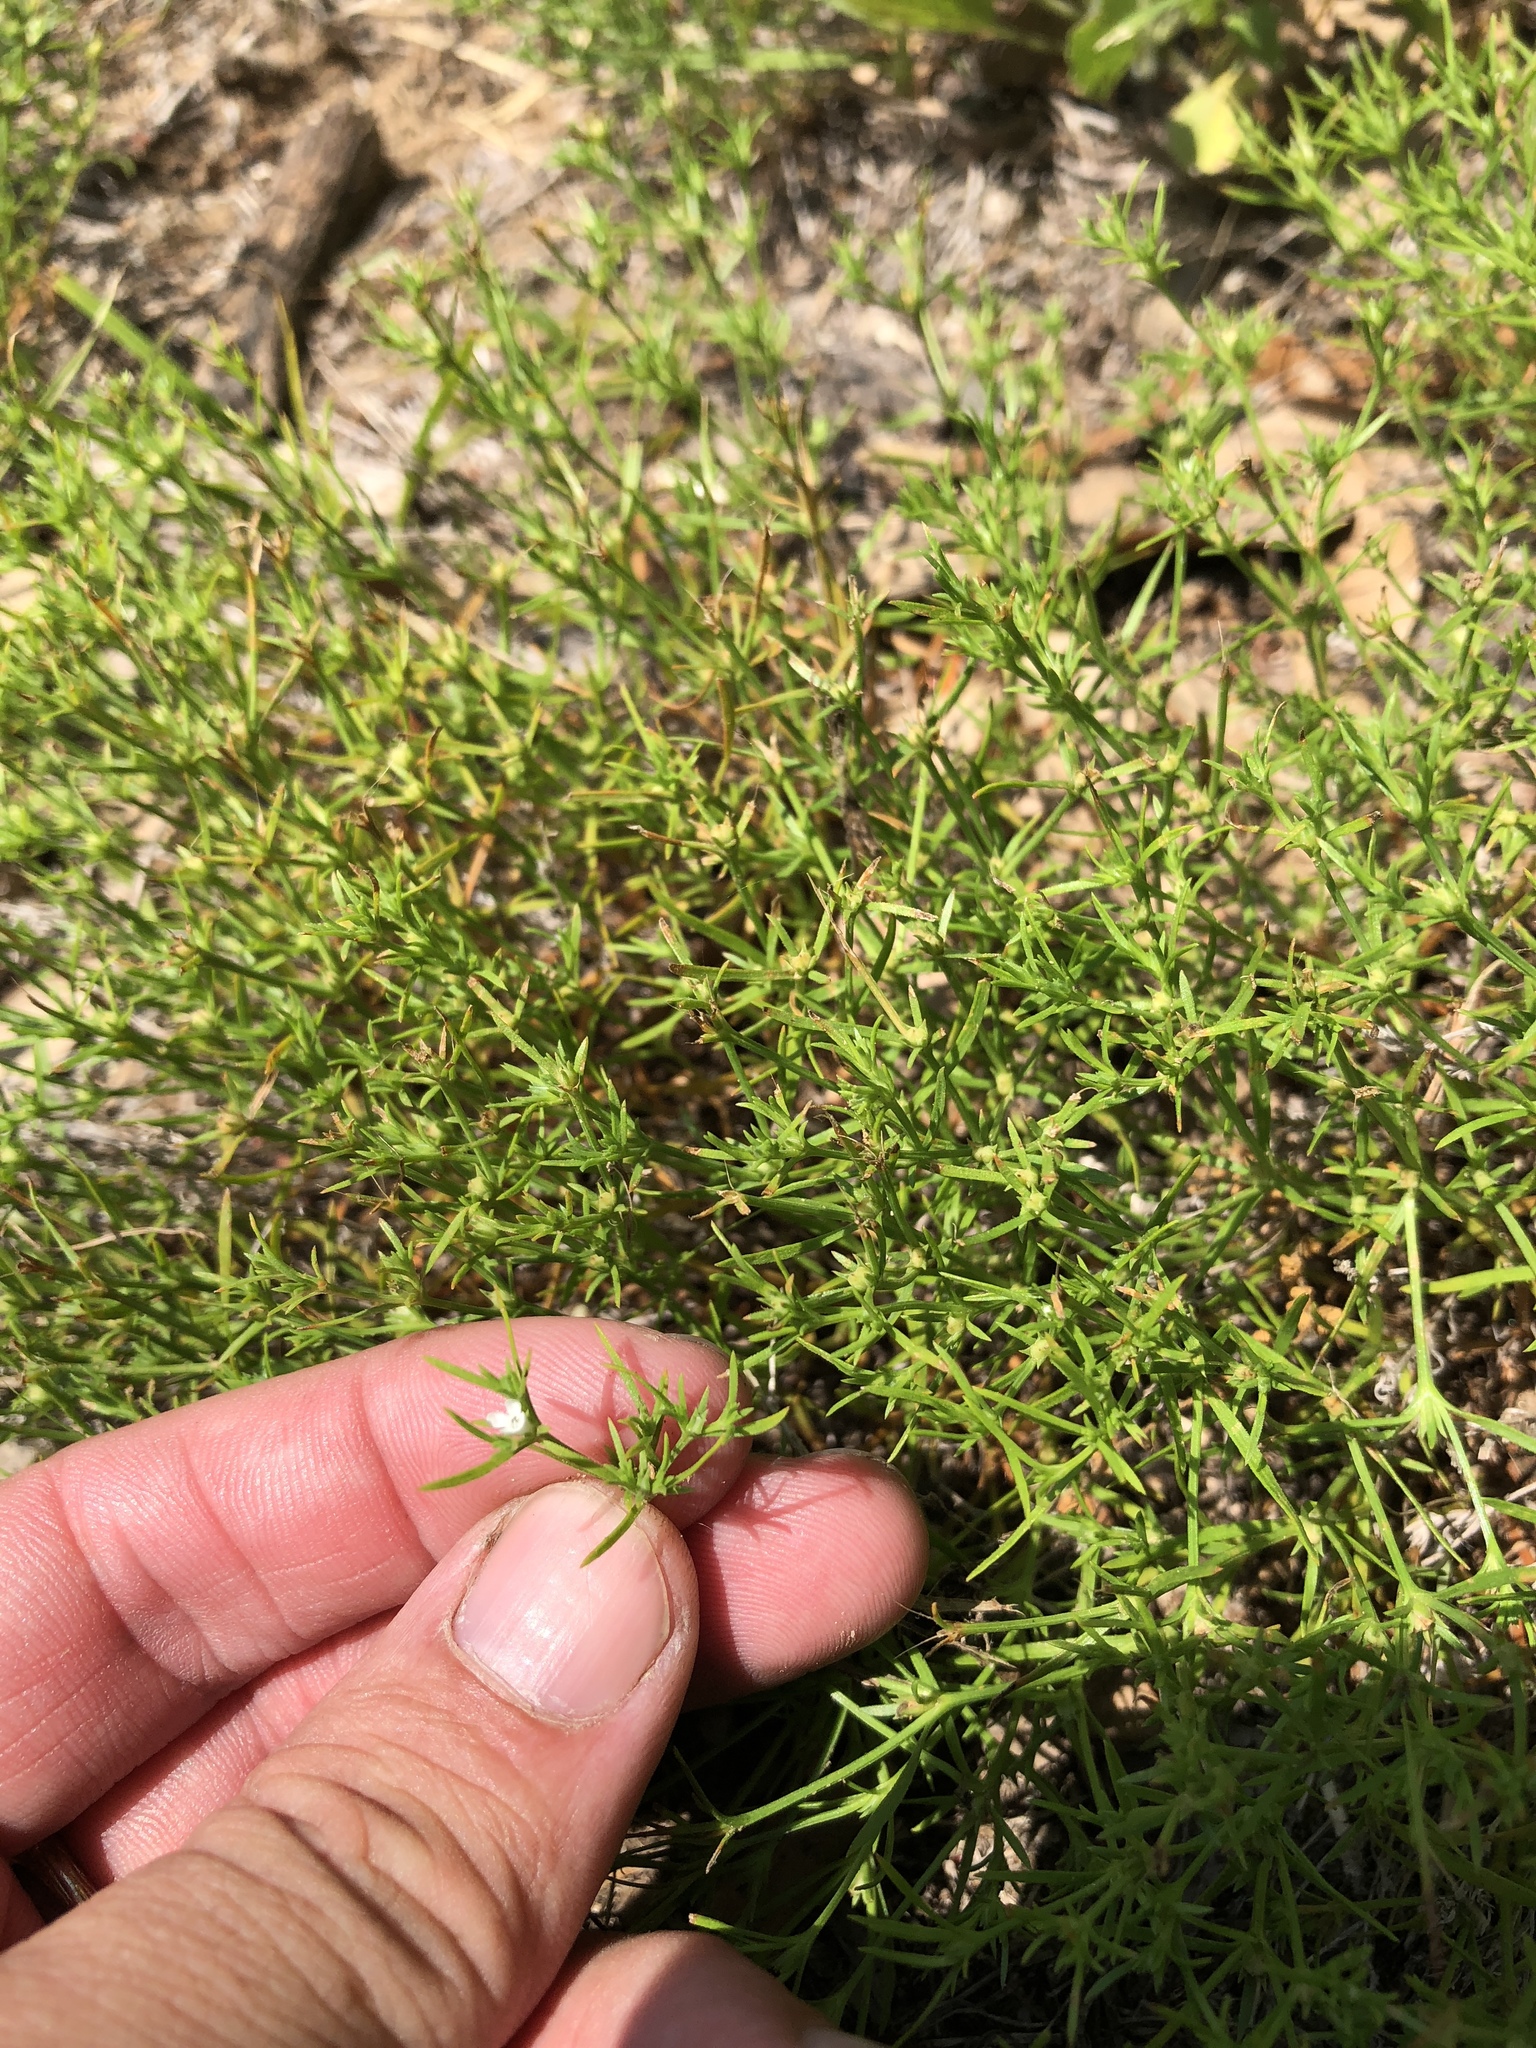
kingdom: Plantae
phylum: Tracheophyta
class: Magnoliopsida
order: Lamiales
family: Tetrachondraceae
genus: Polypremum
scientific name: Polypremum procumbens
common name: Juniper-leaf
